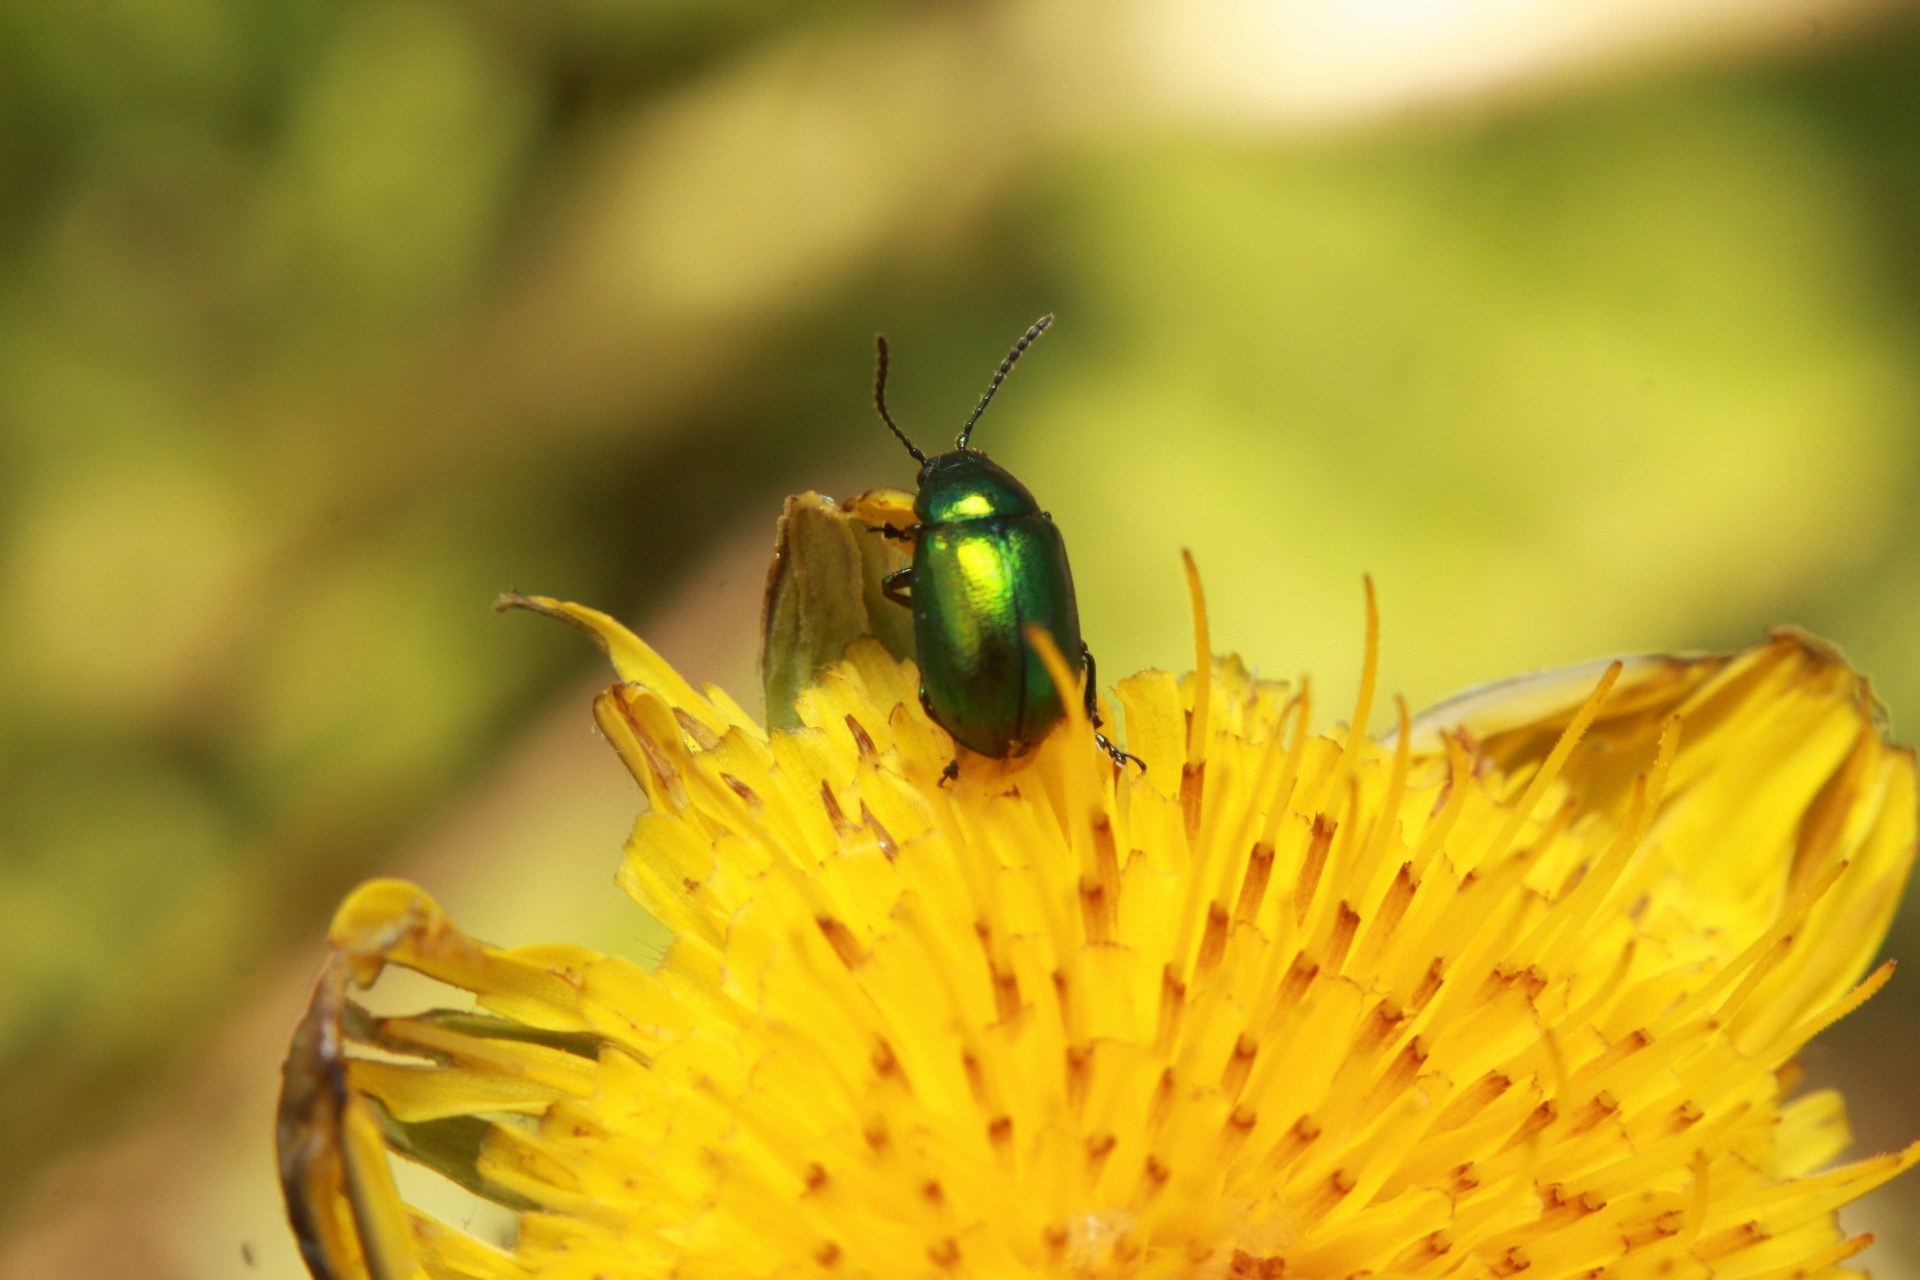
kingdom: Animalia
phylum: Arthropoda
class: Insecta
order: Coleoptera
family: Chrysomelidae
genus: Gastrophysa
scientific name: Gastrophysa viridula
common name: Green dock beetle
